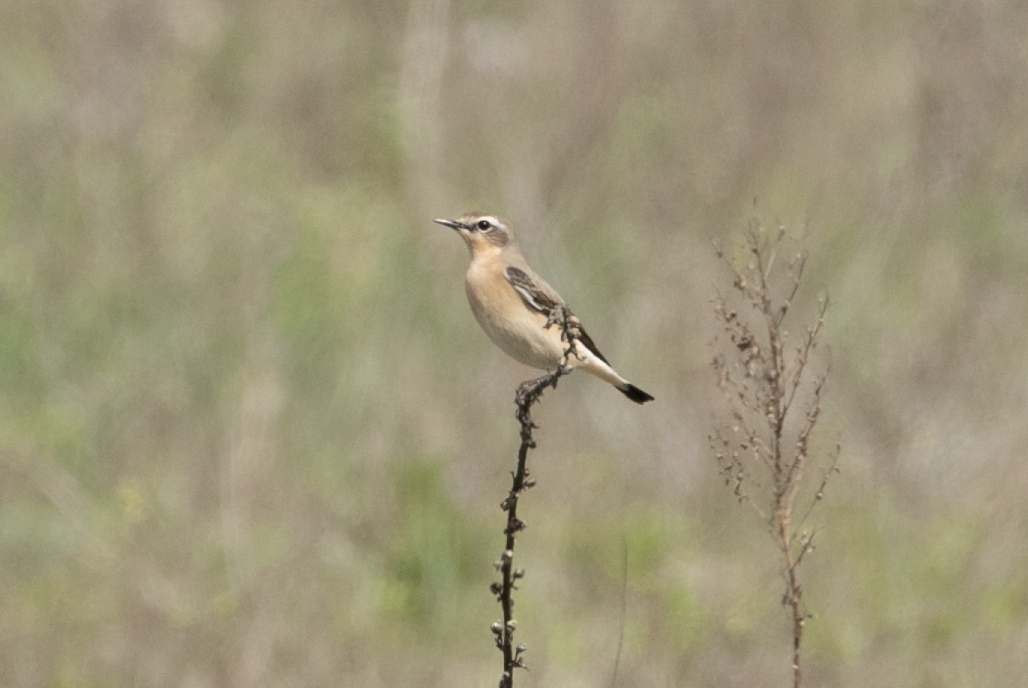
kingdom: Animalia
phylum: Chordata
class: Aves
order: Passeriformes
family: Muscicapidae
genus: Oenanthe
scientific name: Oenanthe oenanthe
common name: Northern wheatear
